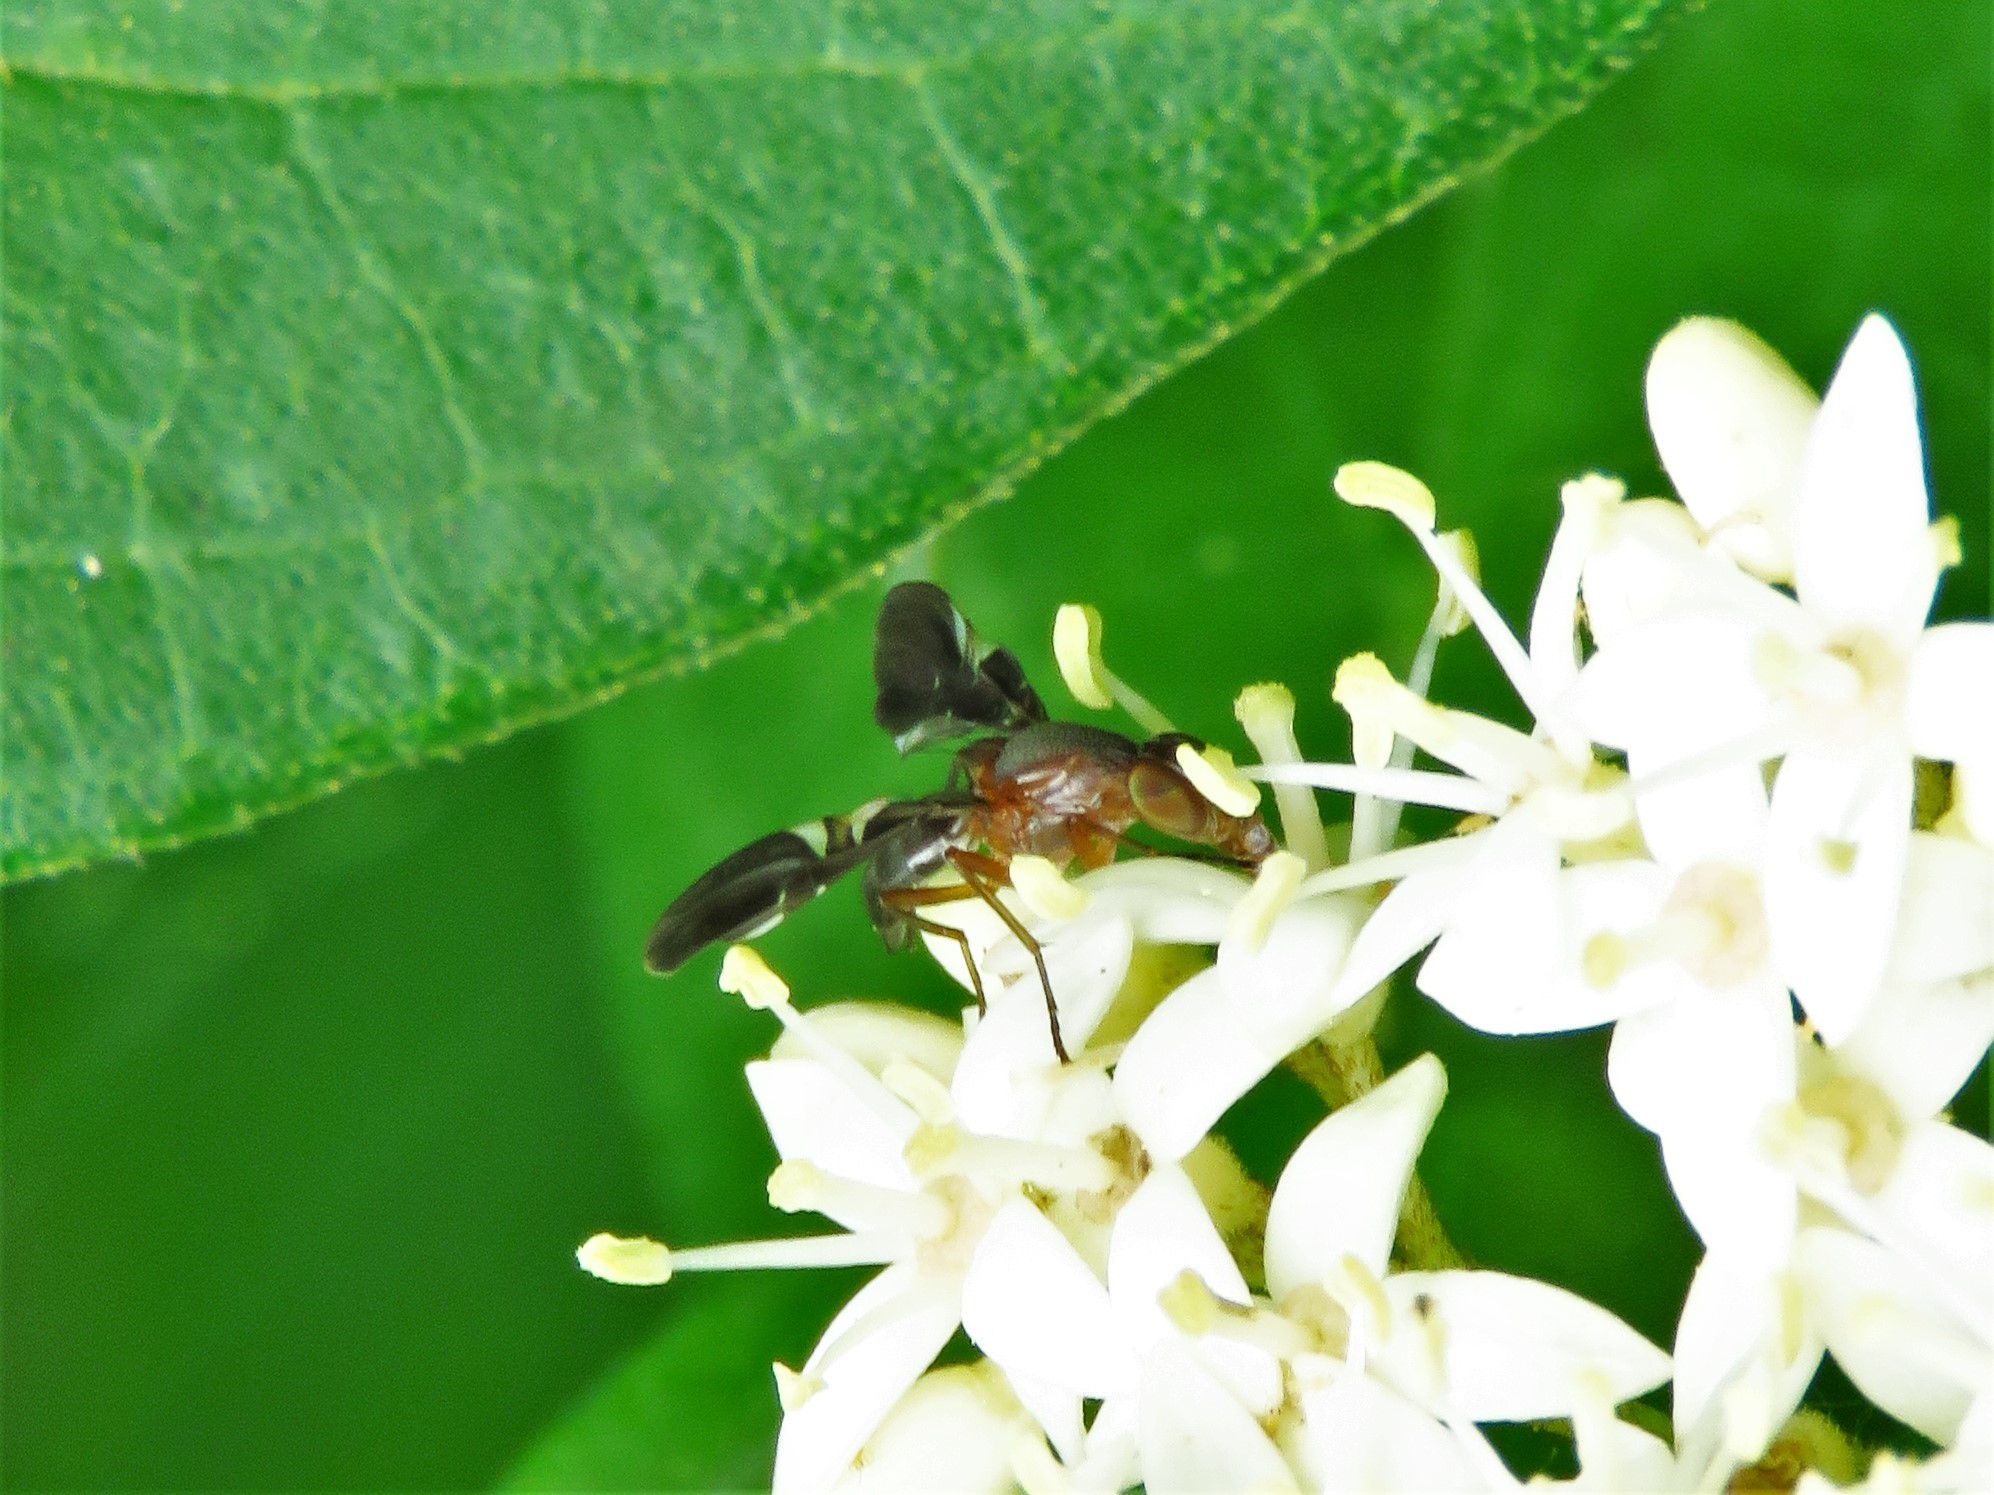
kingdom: Animalia
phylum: Arthropoda
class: Insecta
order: Diptera
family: Ulidiidae
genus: Delphinia
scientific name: Delphinia picta
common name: Common picture-winged fly
